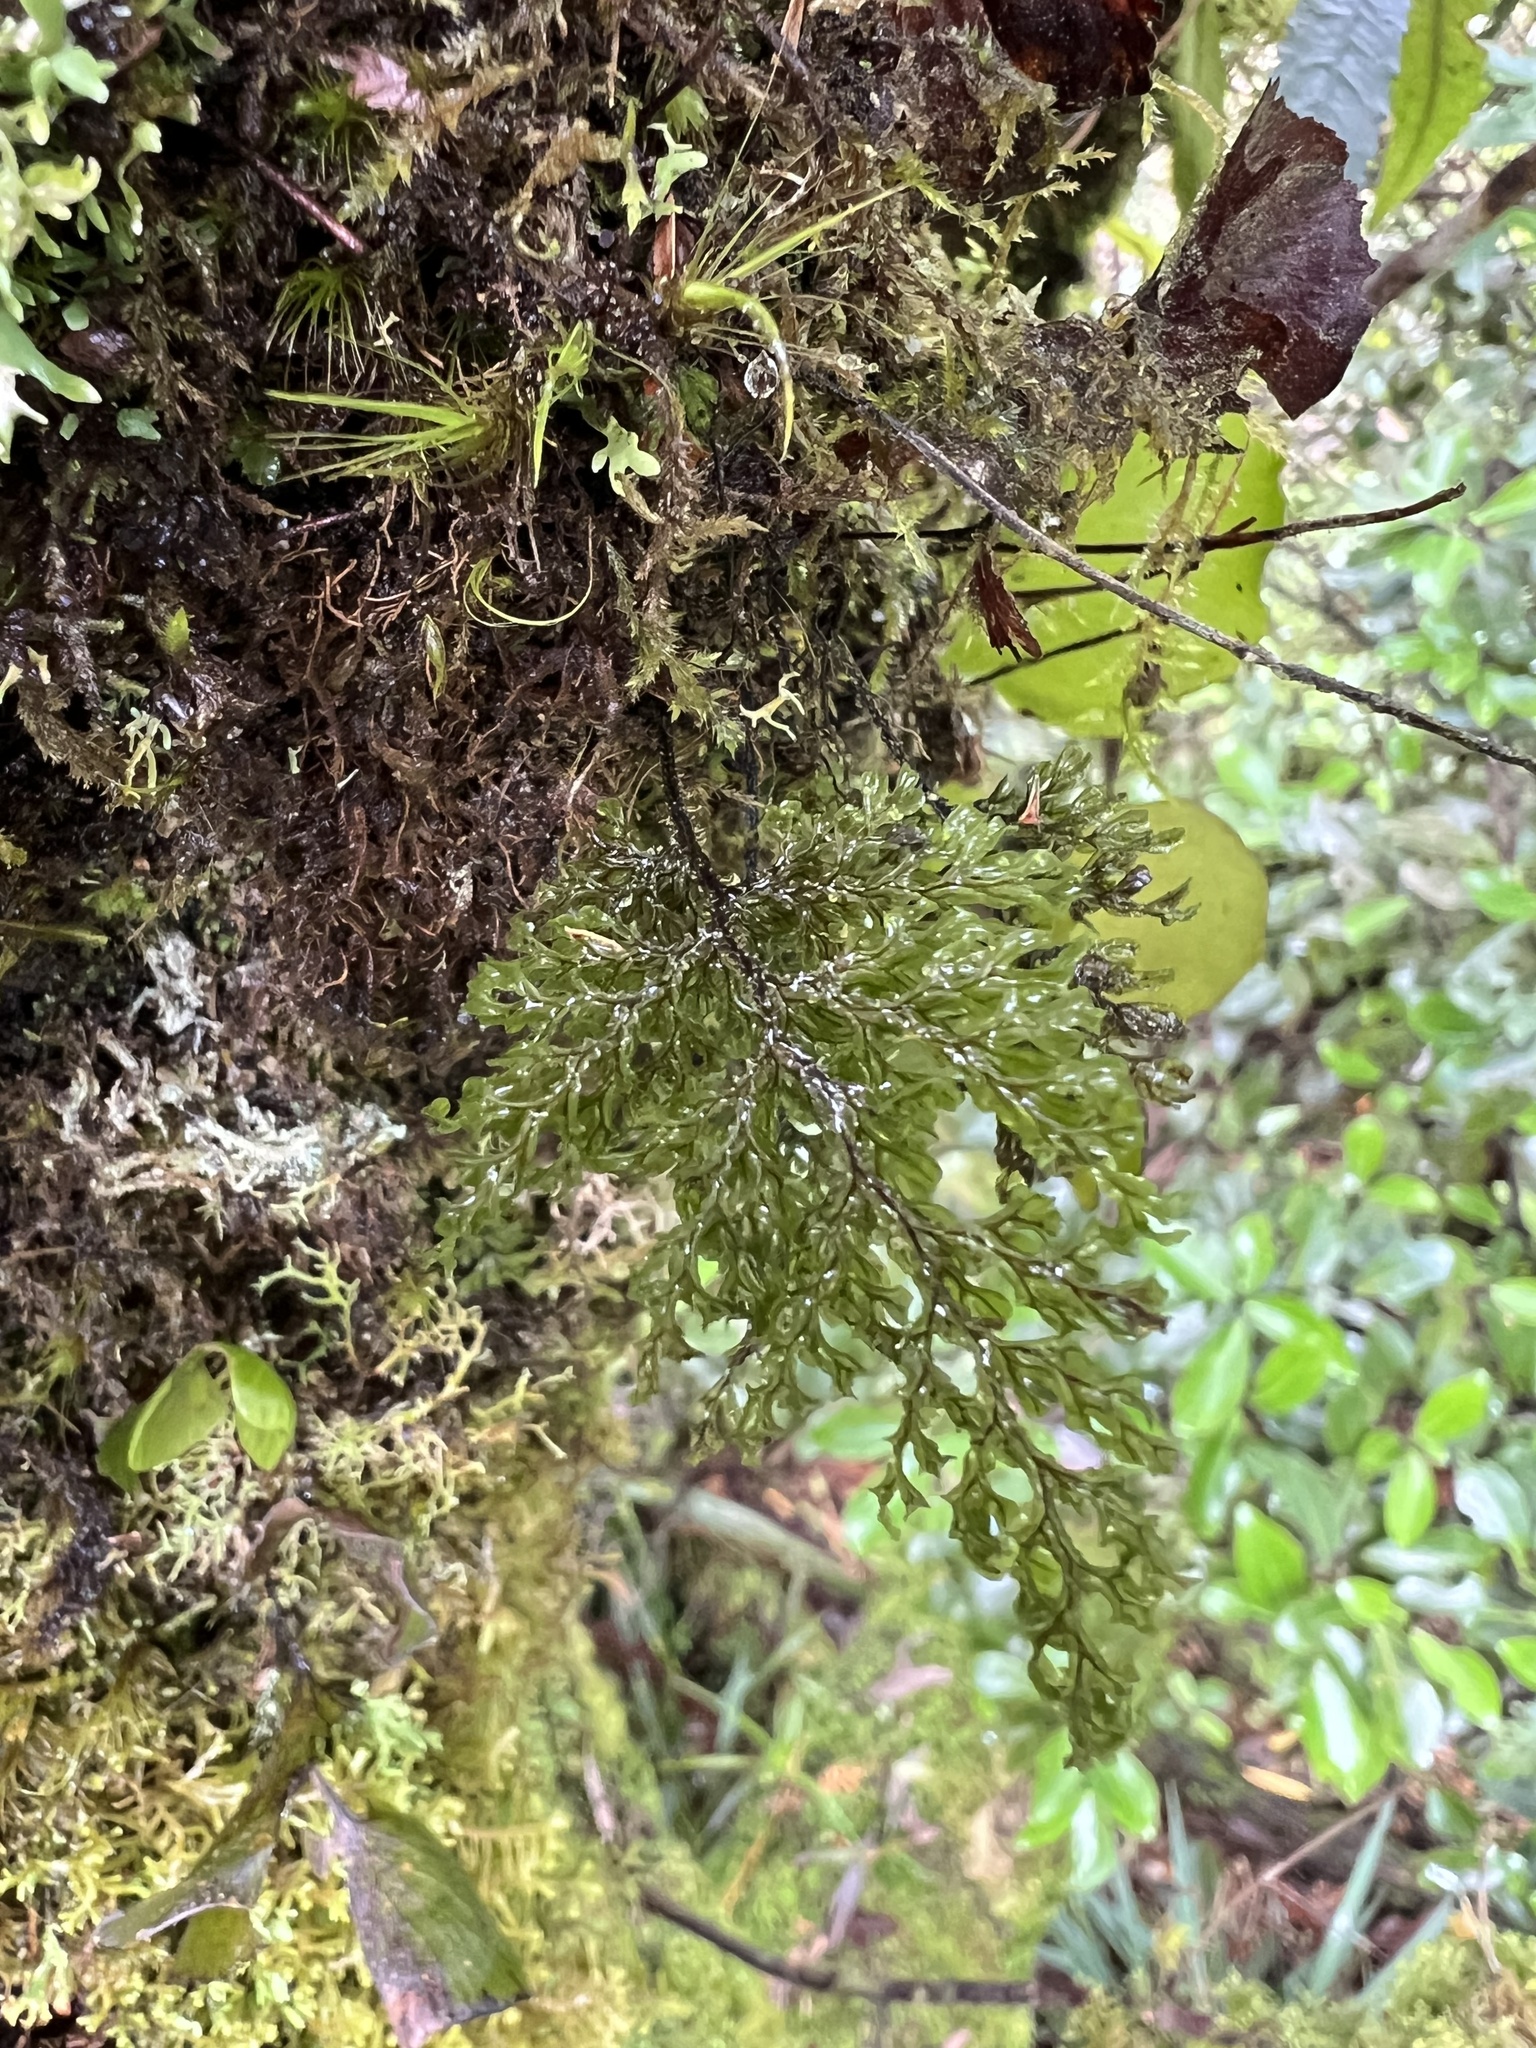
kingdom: Plantae
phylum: Tracheophyta
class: Polypodiopsida
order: Hymenophyllales
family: Hymenophyllaceae
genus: Hymenophyllum
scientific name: Hymenophyllum villosum
